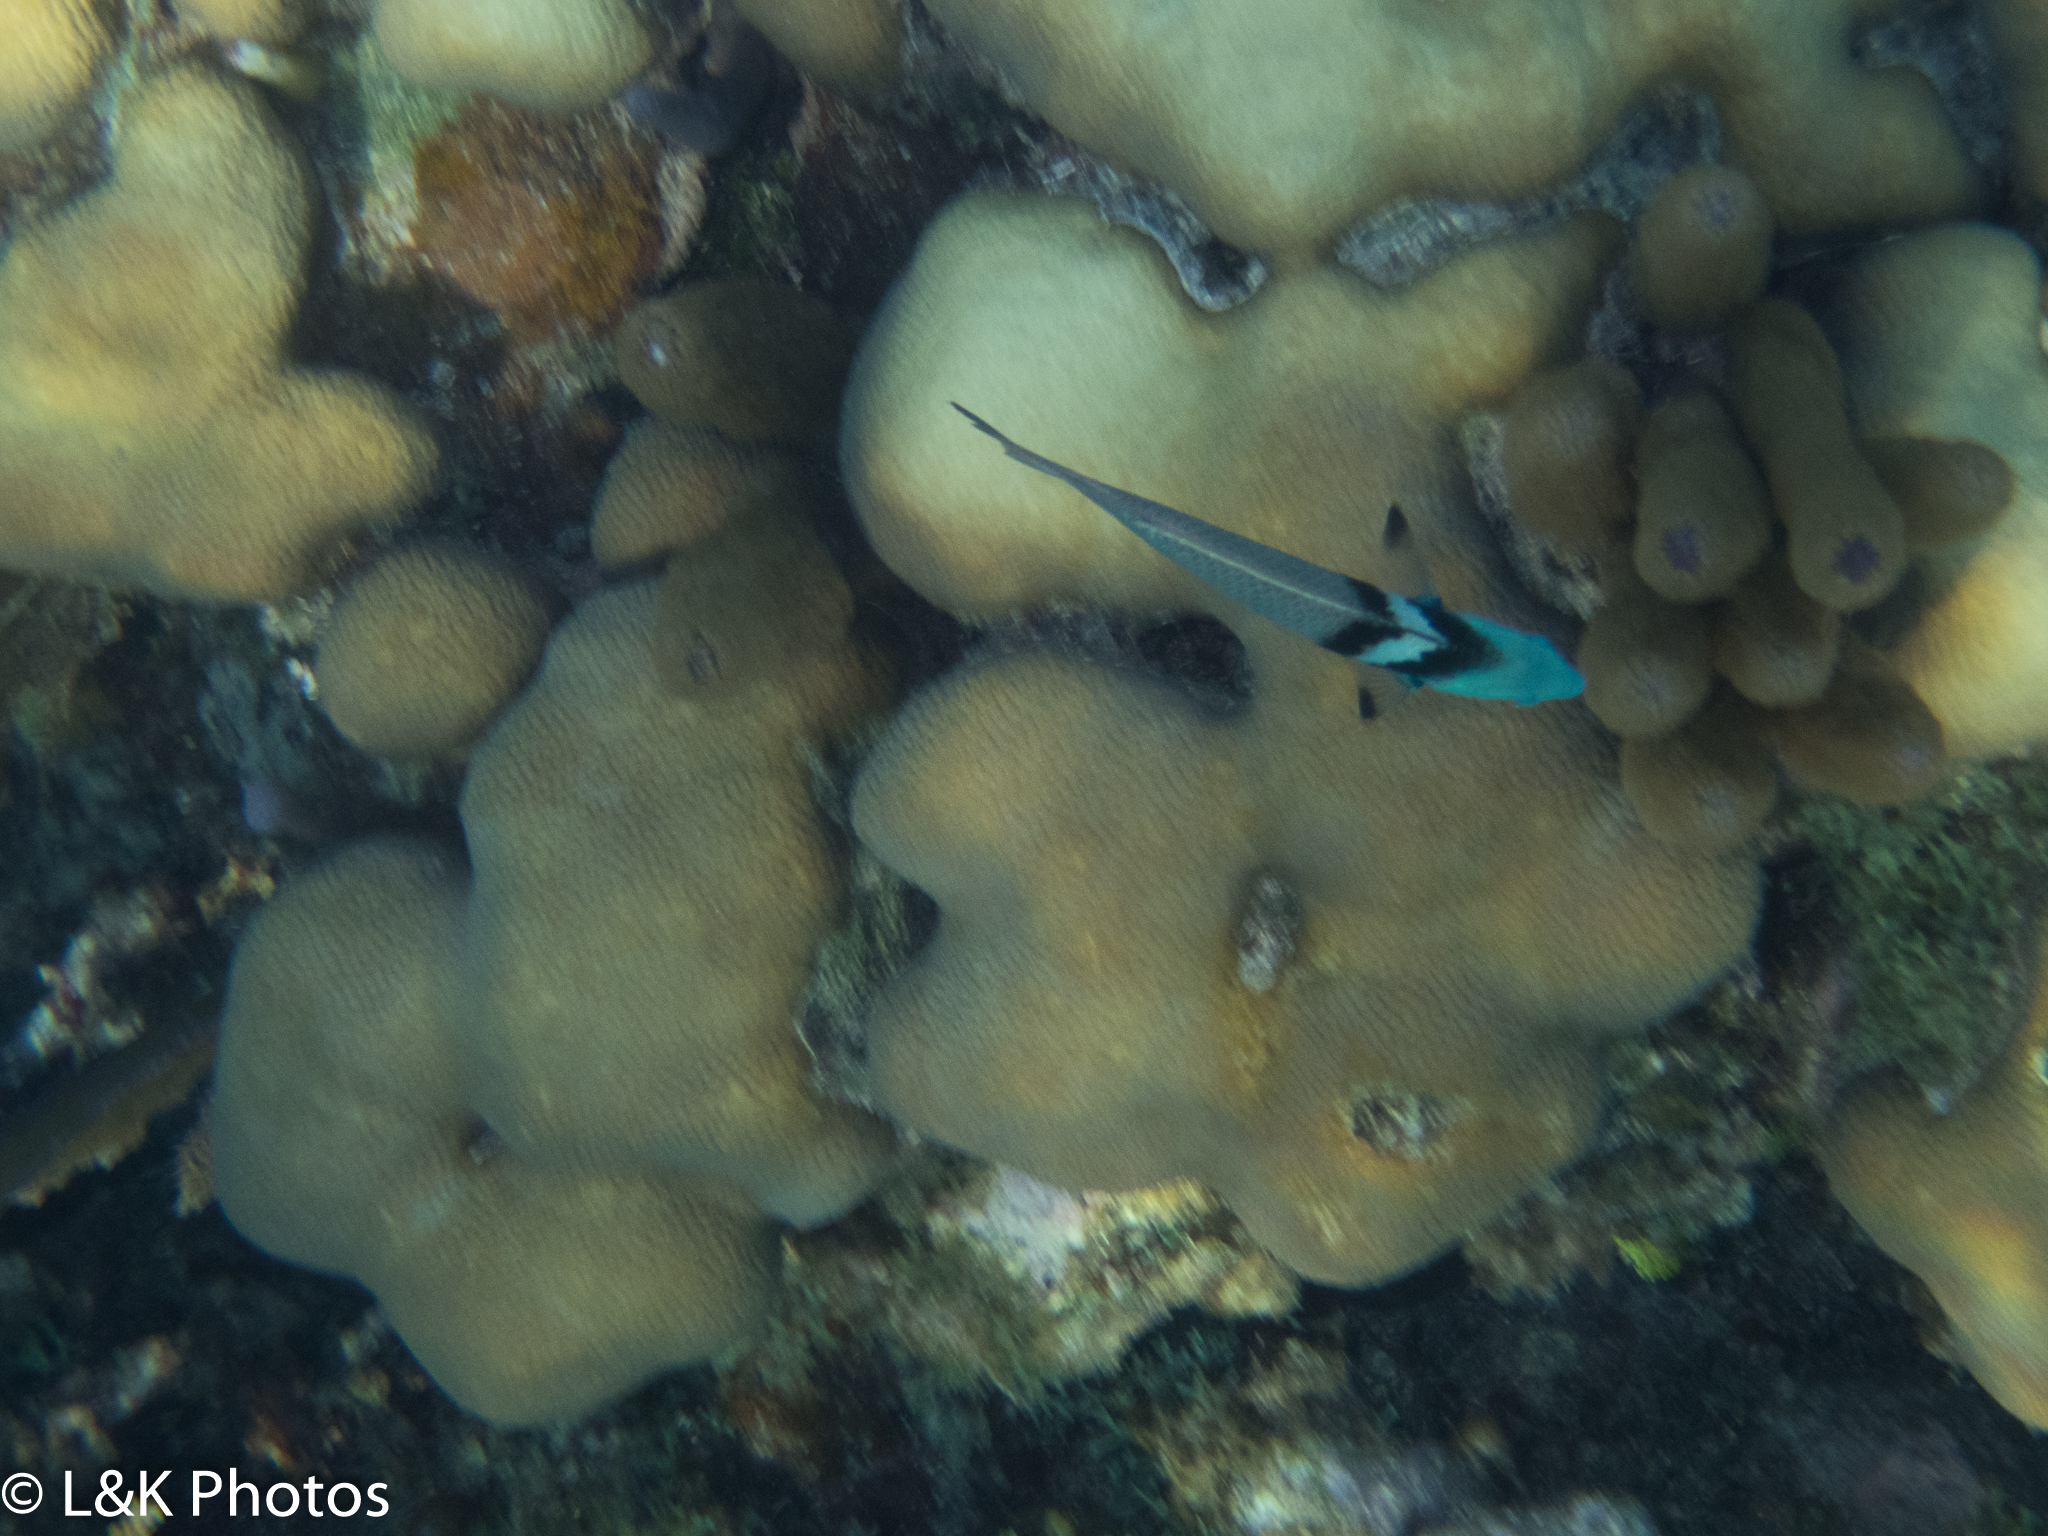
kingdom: Animalia
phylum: Chordata
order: Perciformes
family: Labridae
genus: Thalassoma
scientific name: Thalassoma bifasciatum
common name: Bluehead wrasse
